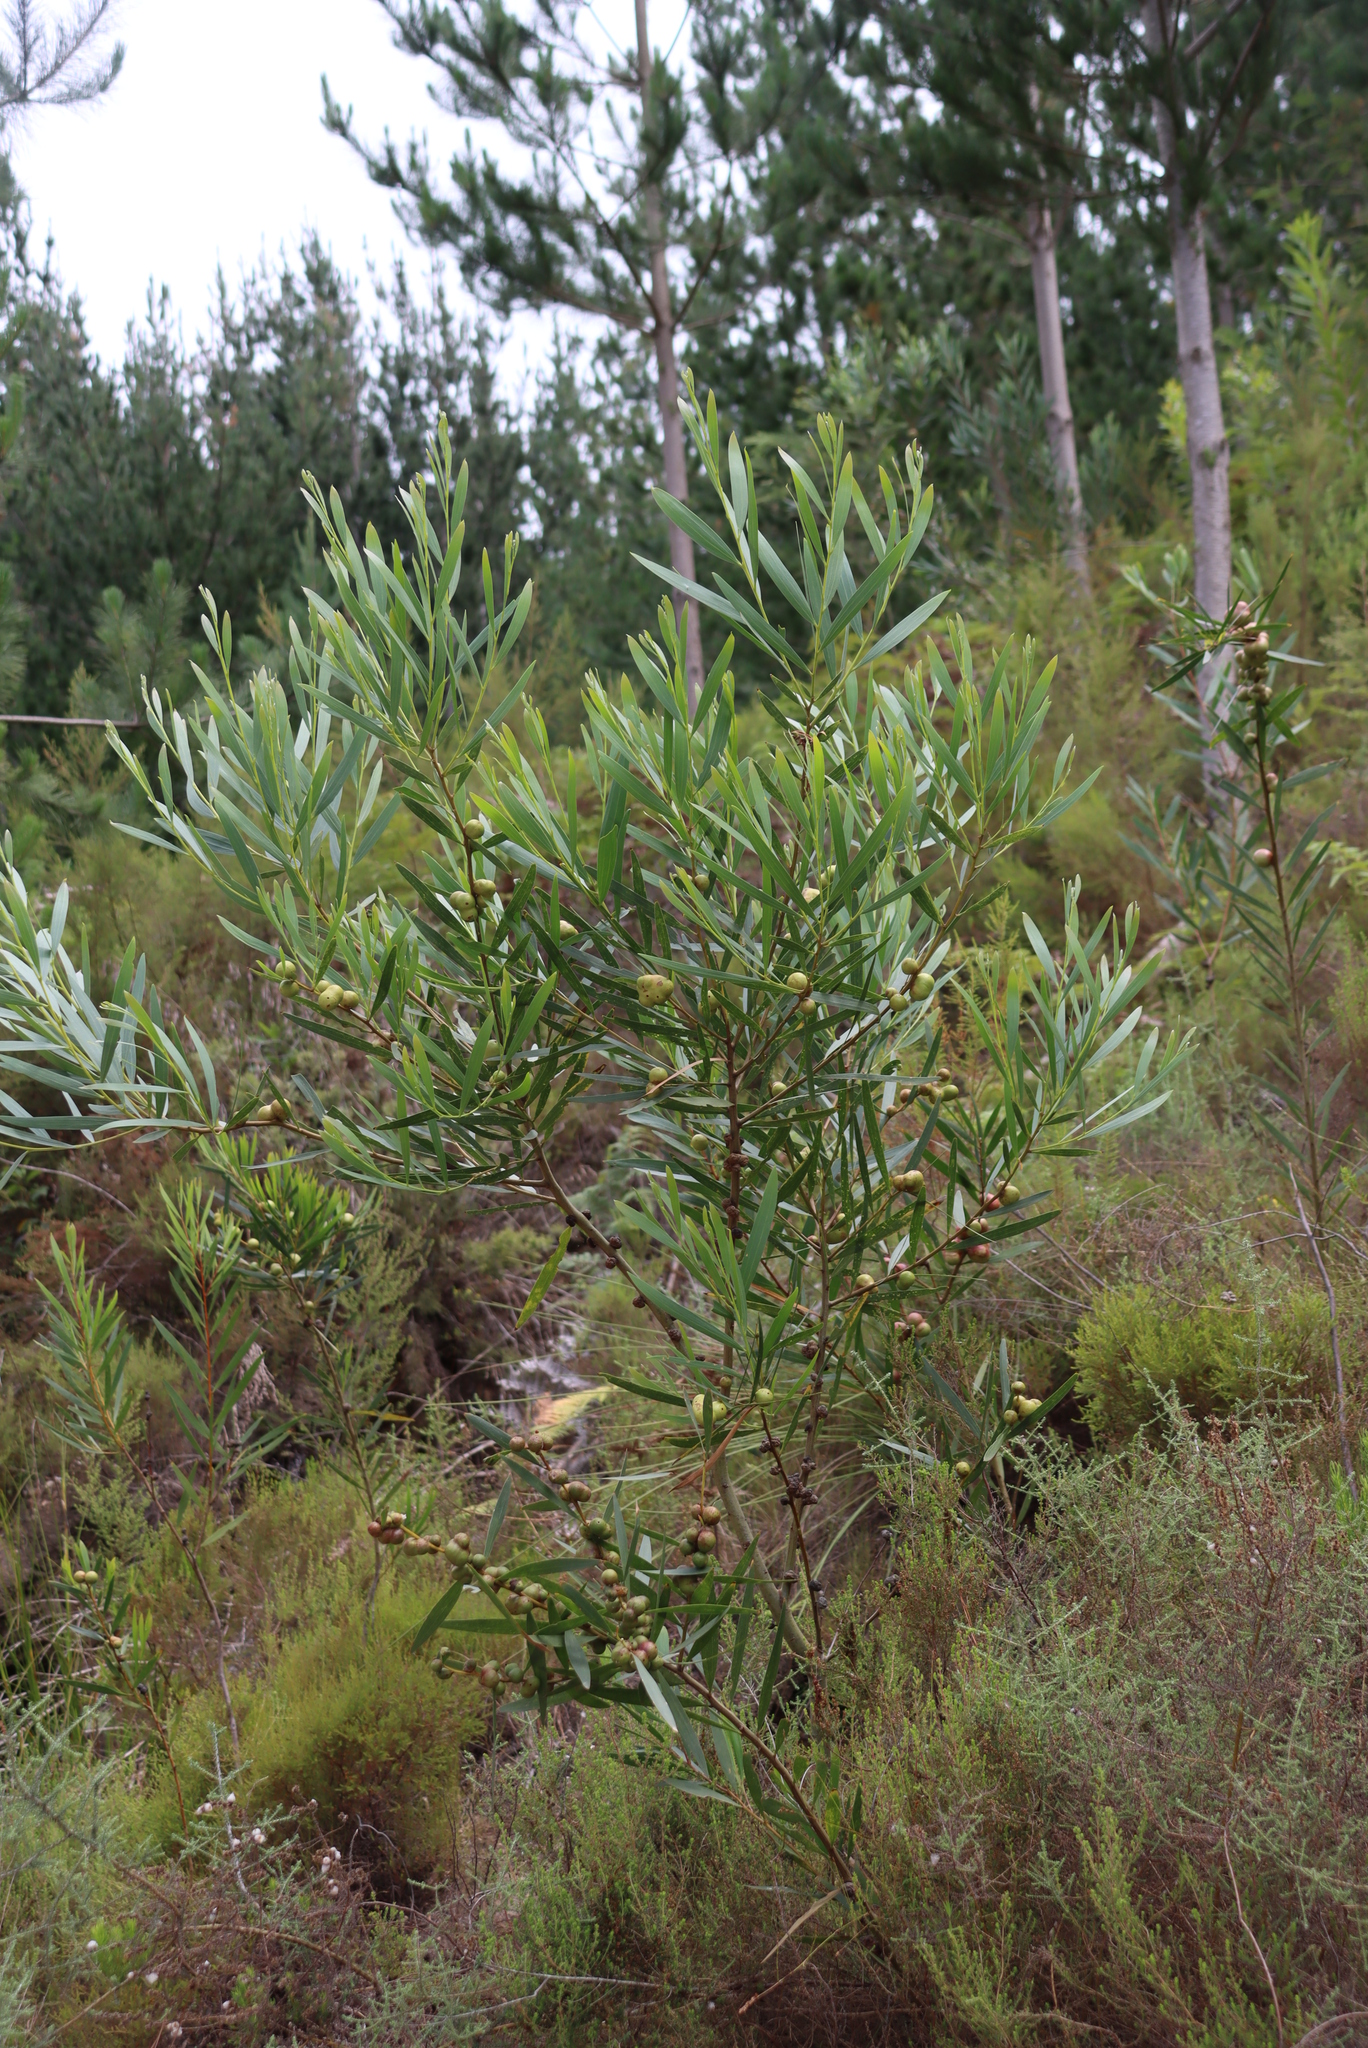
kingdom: Animalia
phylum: Arthropoda
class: Insecta
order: Hymenoptera
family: Pteromalidae
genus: Trichilogaster
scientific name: Trichilogaster acaciaelongifoliae
